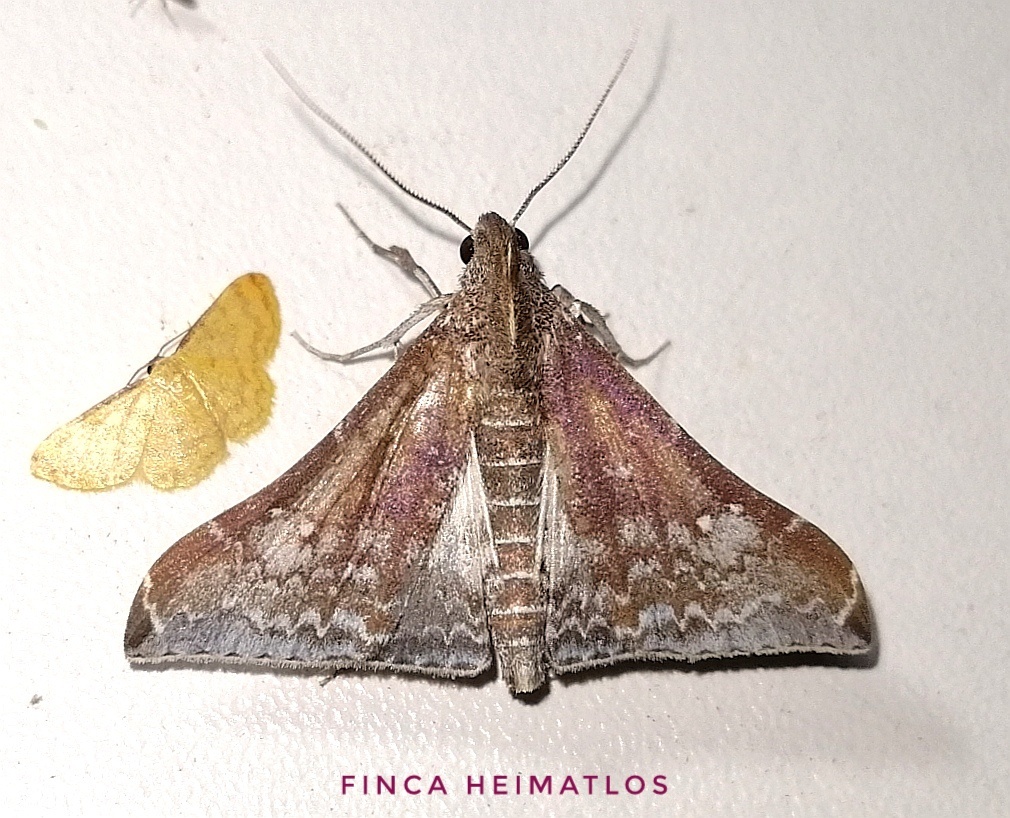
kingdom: Animalia
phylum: Arthropoda
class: Insecta
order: Lepidoptera
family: Erebidae
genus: Neopalthis
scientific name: Neopalthis madates
